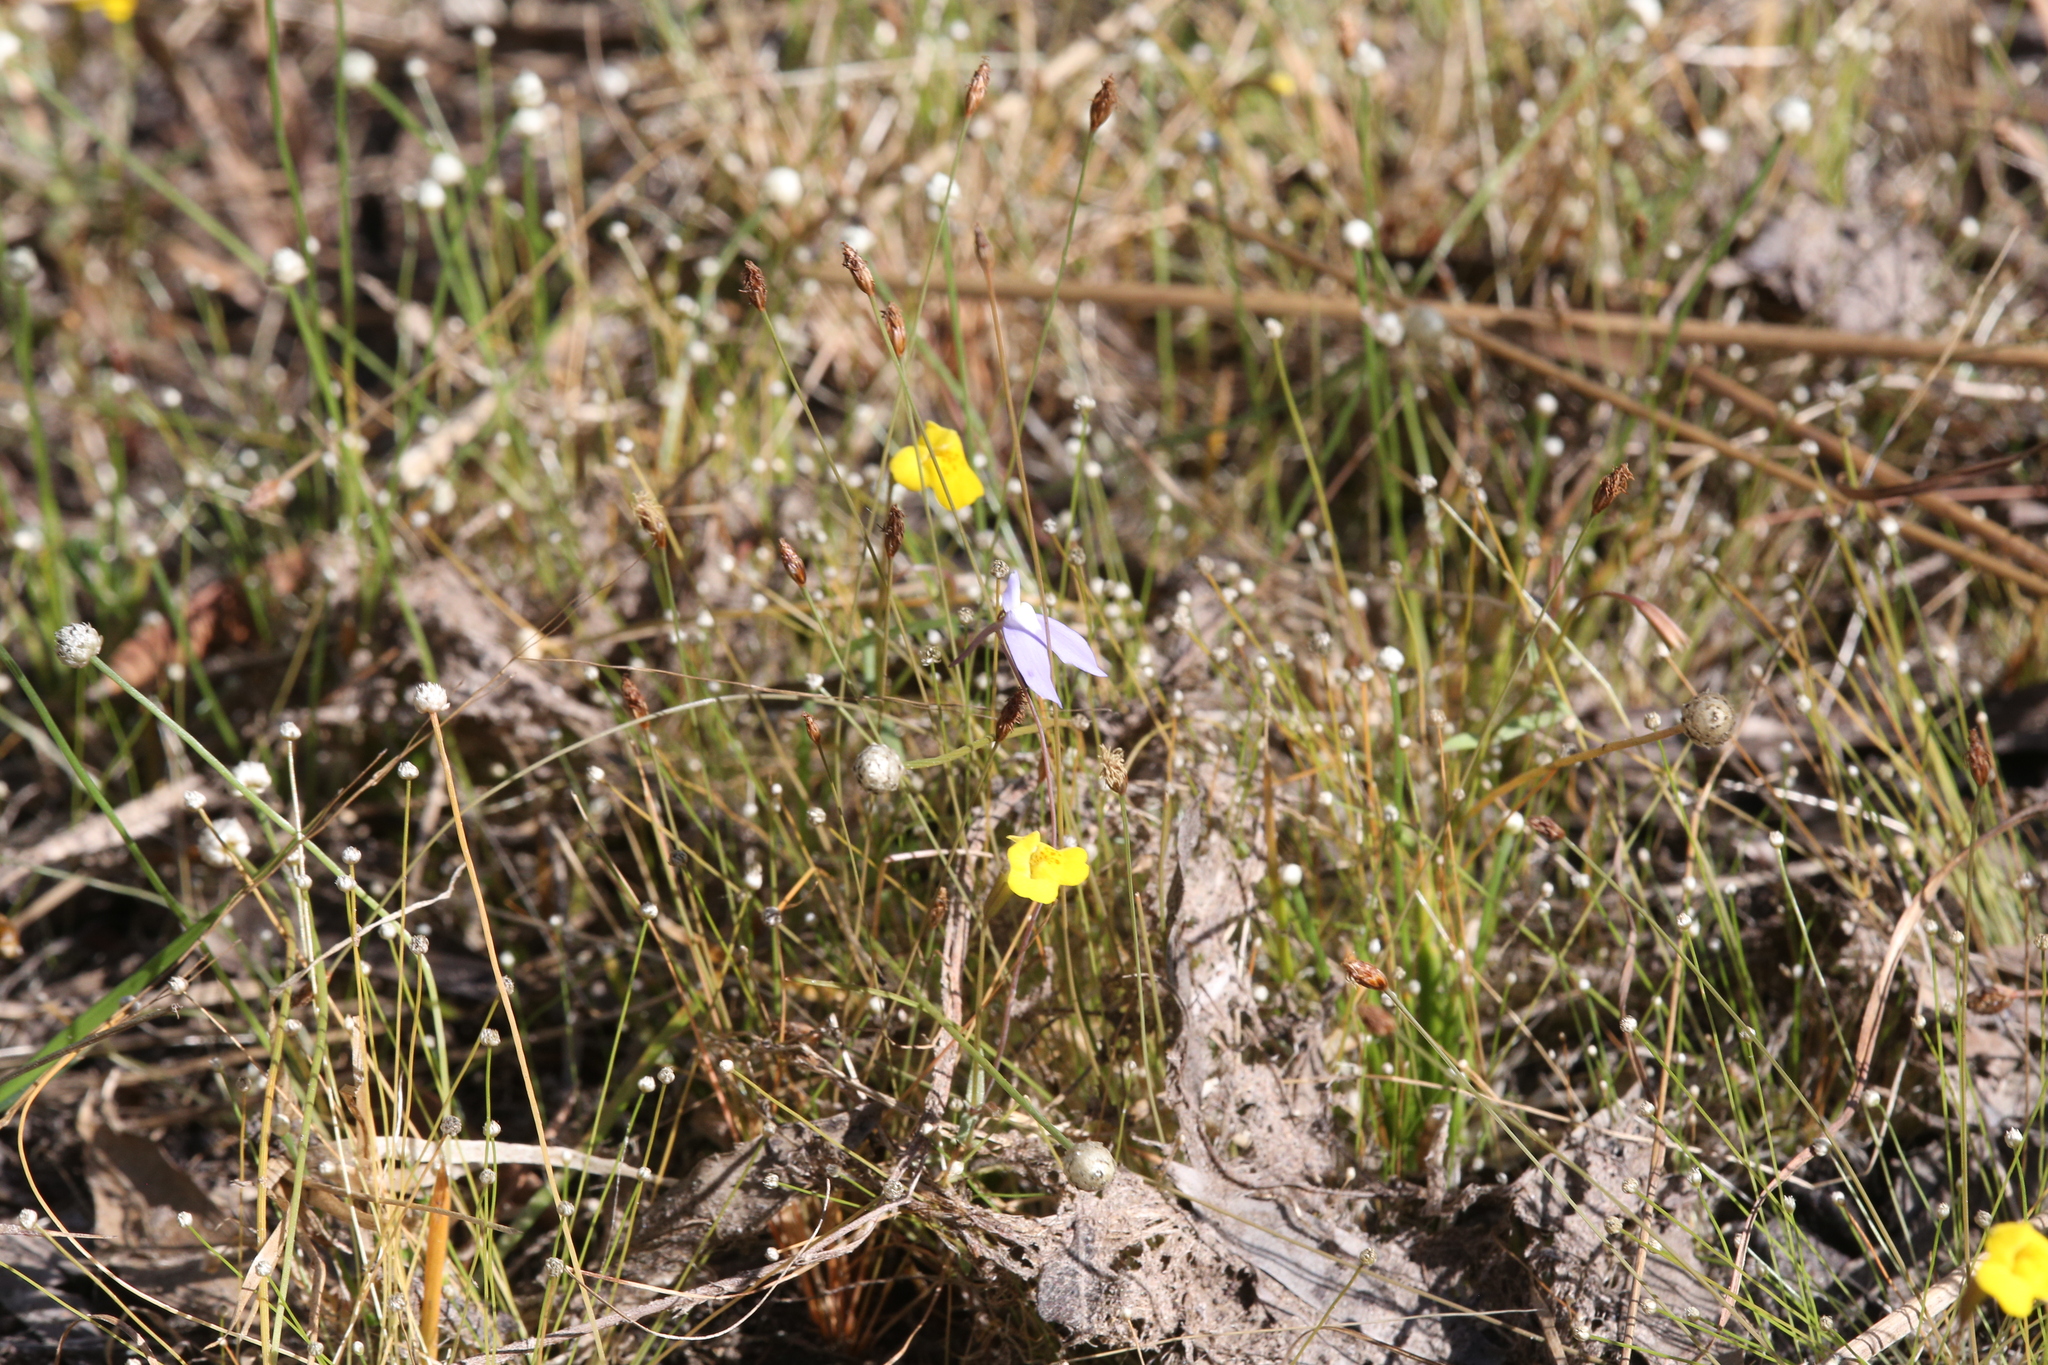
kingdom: Plantae
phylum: Tracheophyta
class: Magnoliopsida
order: Lamiales
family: Lentibulariaceae
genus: Utricularia
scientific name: Utricularia leptoplectra
